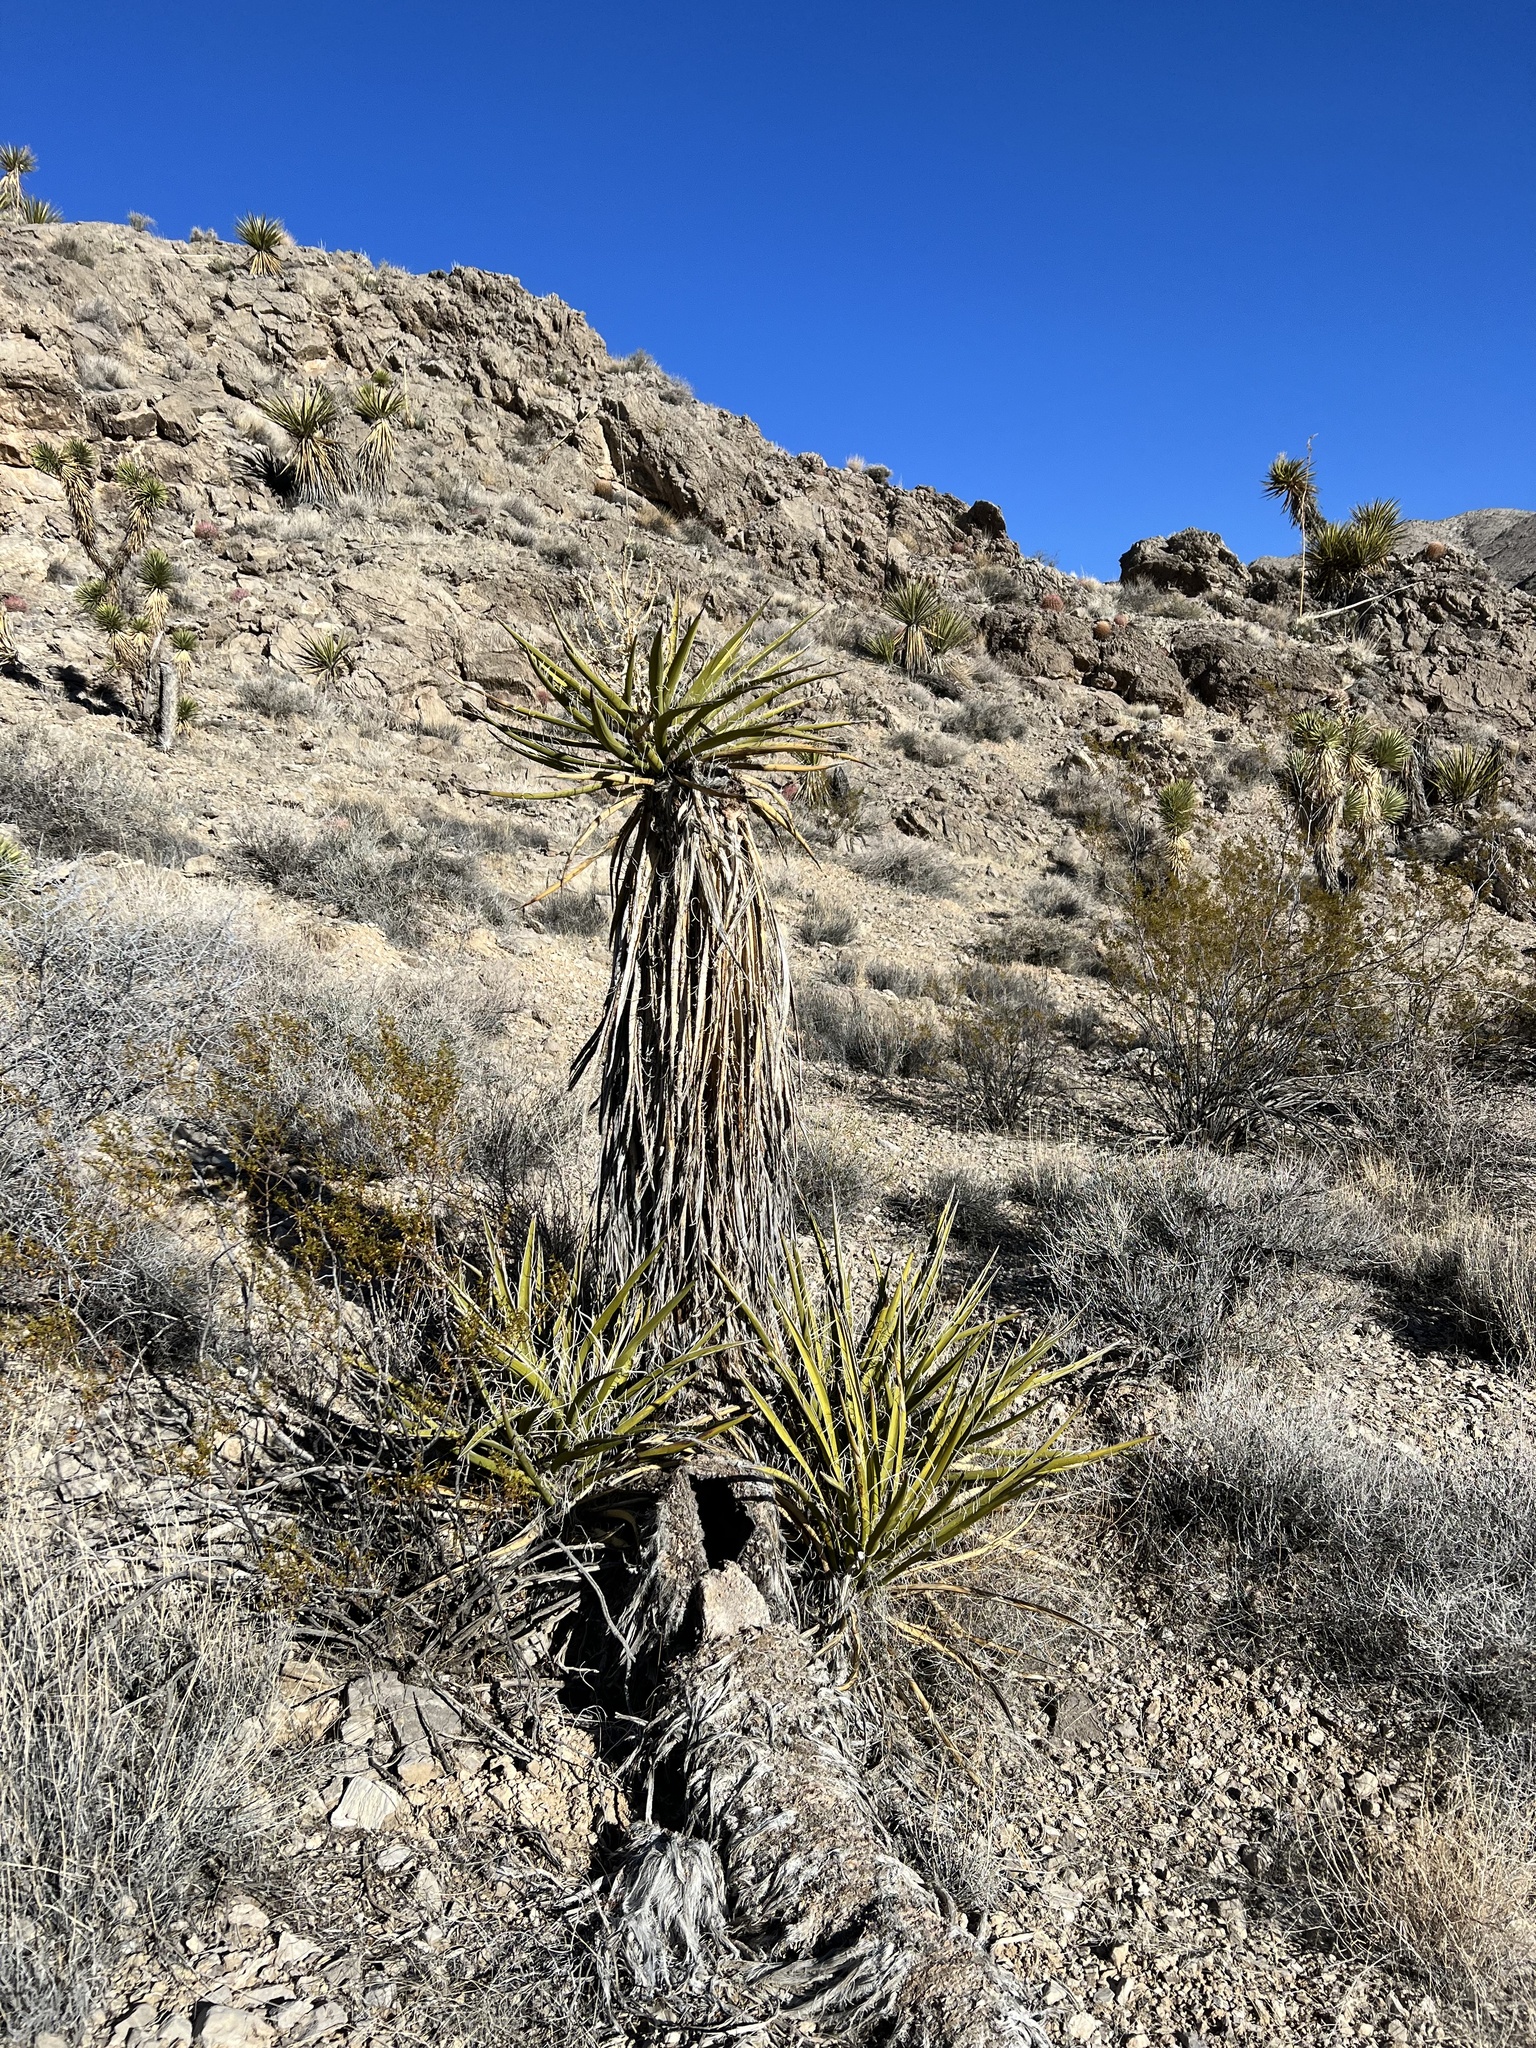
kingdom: Plantae
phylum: Tracheophyta
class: Liliopsida
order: Asparagales
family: Asparagaceae
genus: Yucca
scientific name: Yucca schidigera
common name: Mojave yucca
